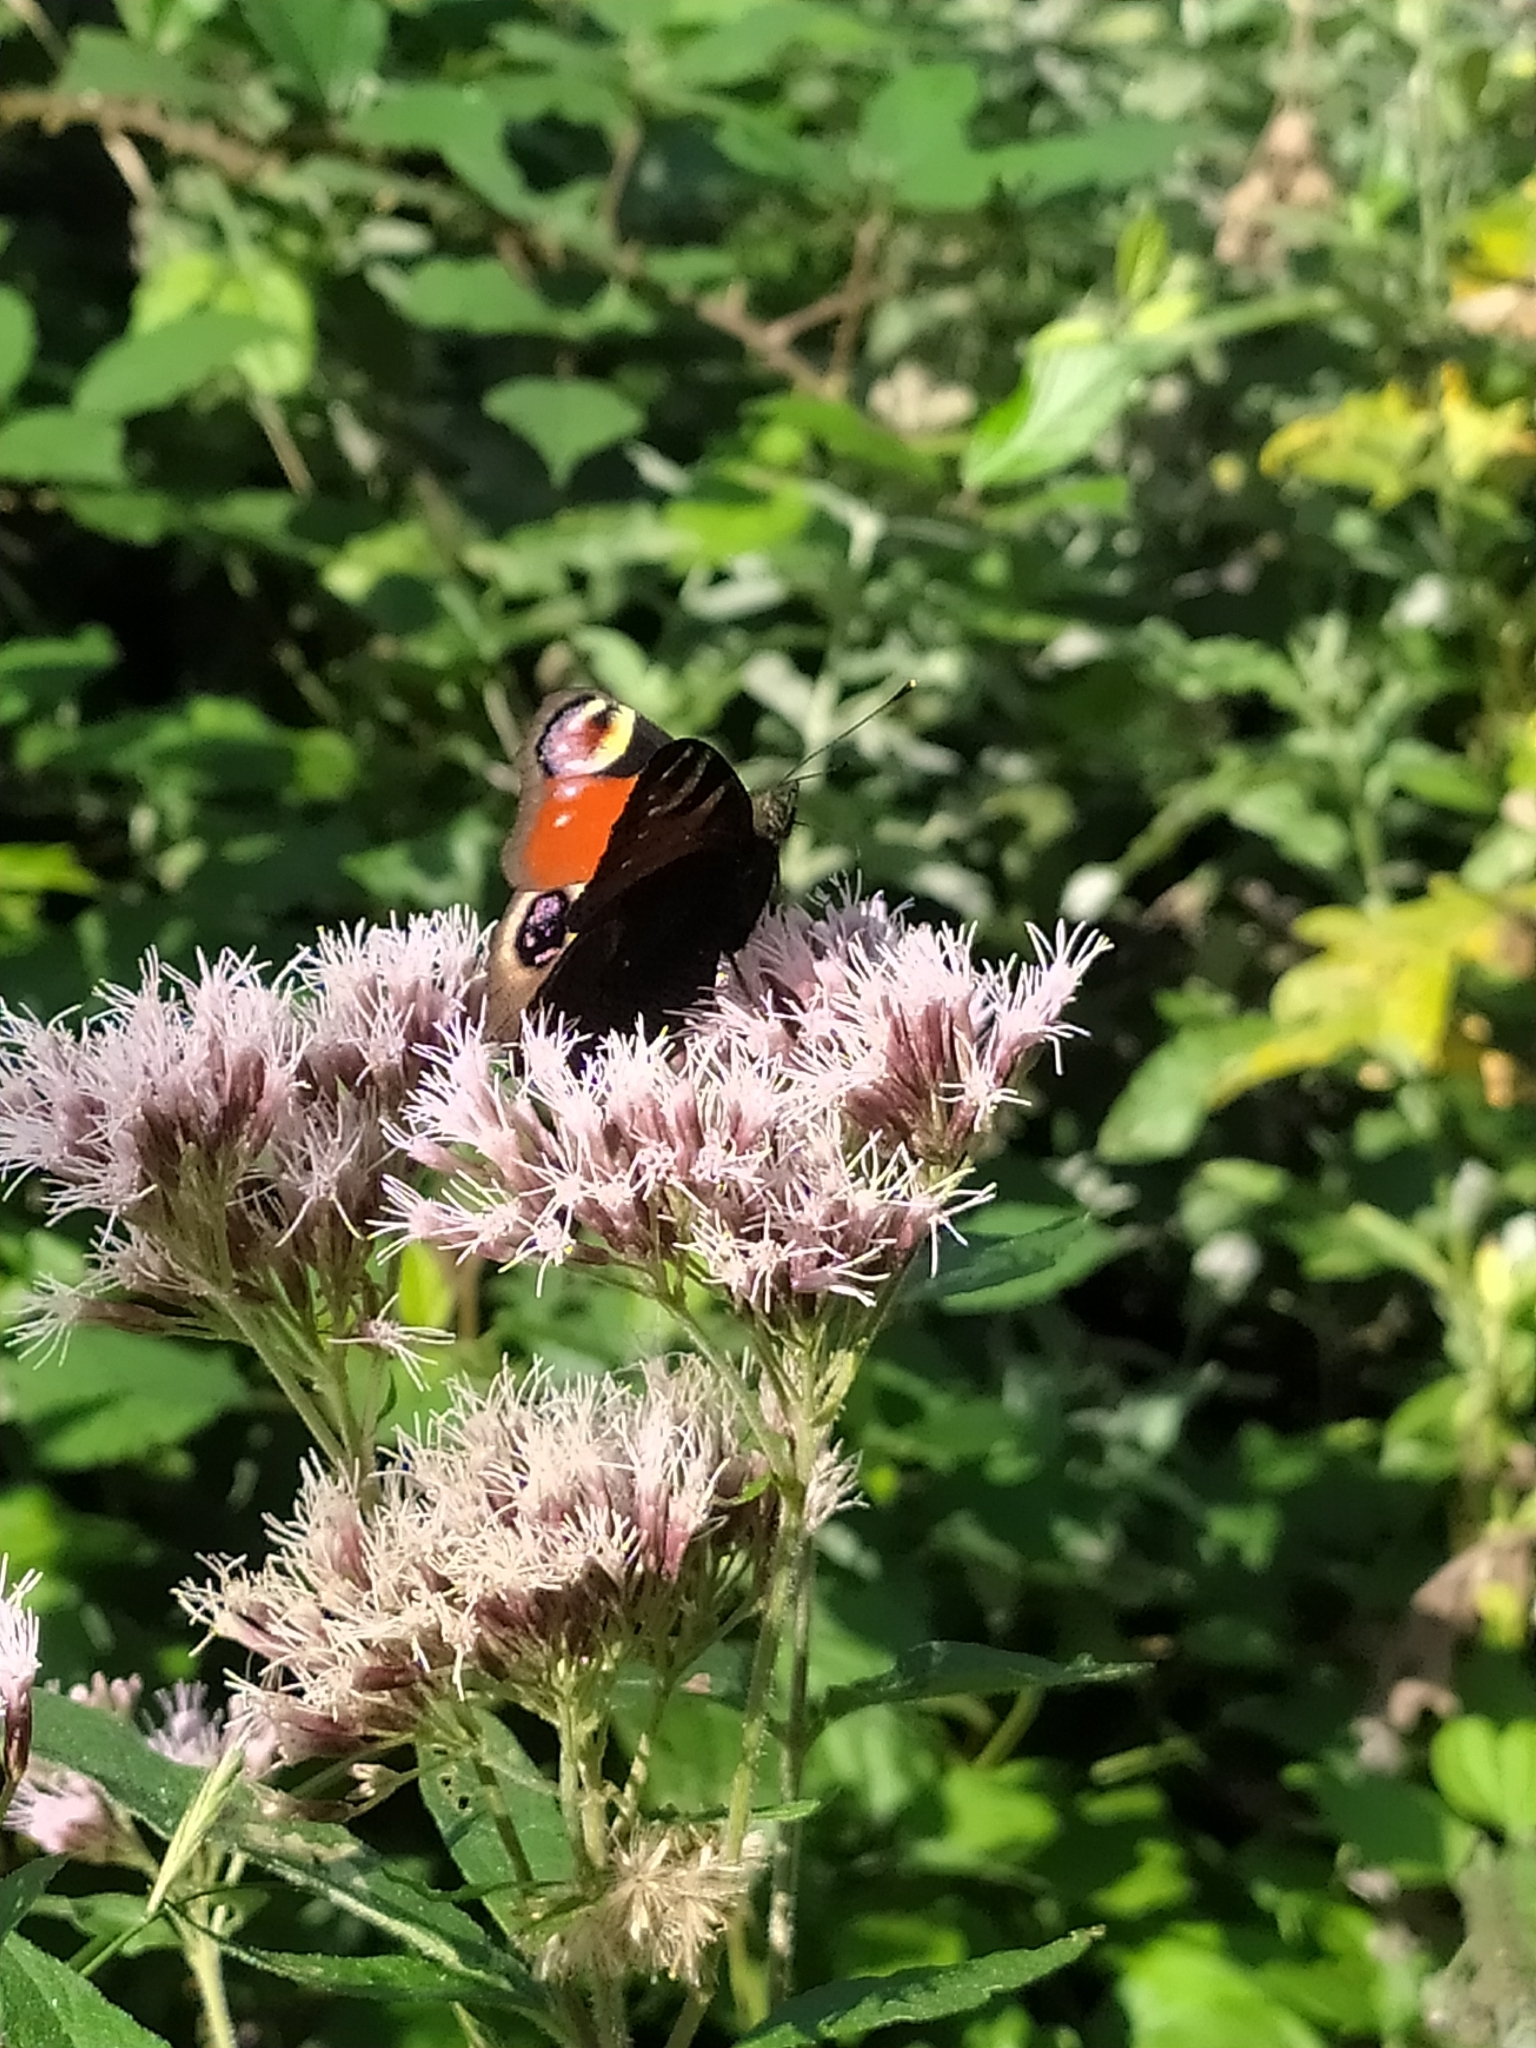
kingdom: Animalia
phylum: Arthropoda
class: Insecta
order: Lepidoptera
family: Nymphalidae
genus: Aglais
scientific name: Aglais io
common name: Peacock
